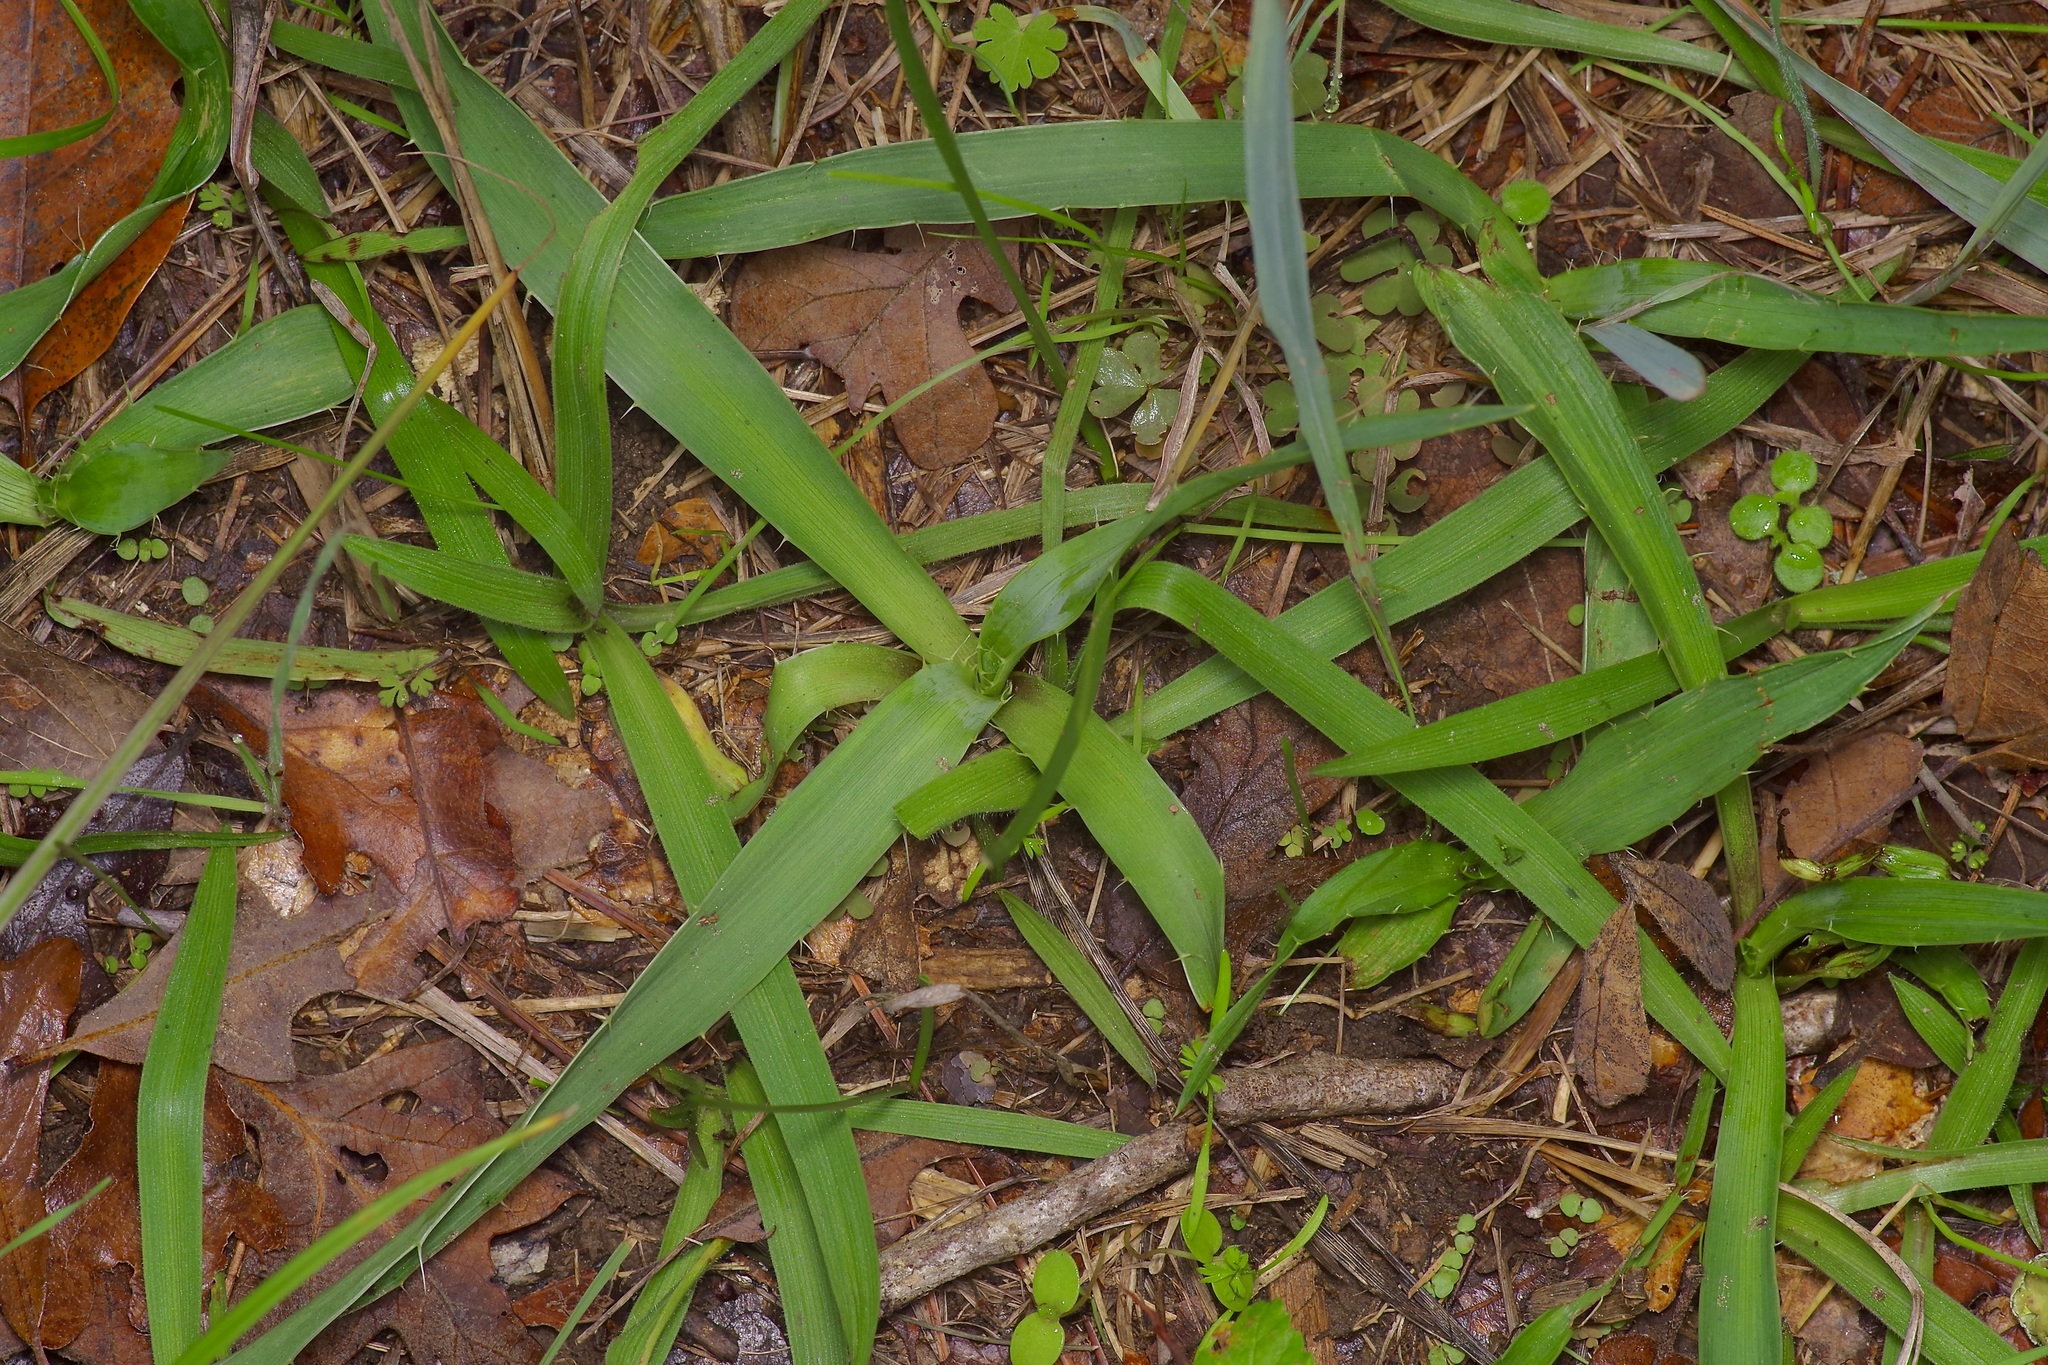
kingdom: Plantae
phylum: Tracheophyta
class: Magnoliopsida
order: Apiales
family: Apiaceae
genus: Eryngium
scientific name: Eryngium yuccifolium
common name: Button eryngo
